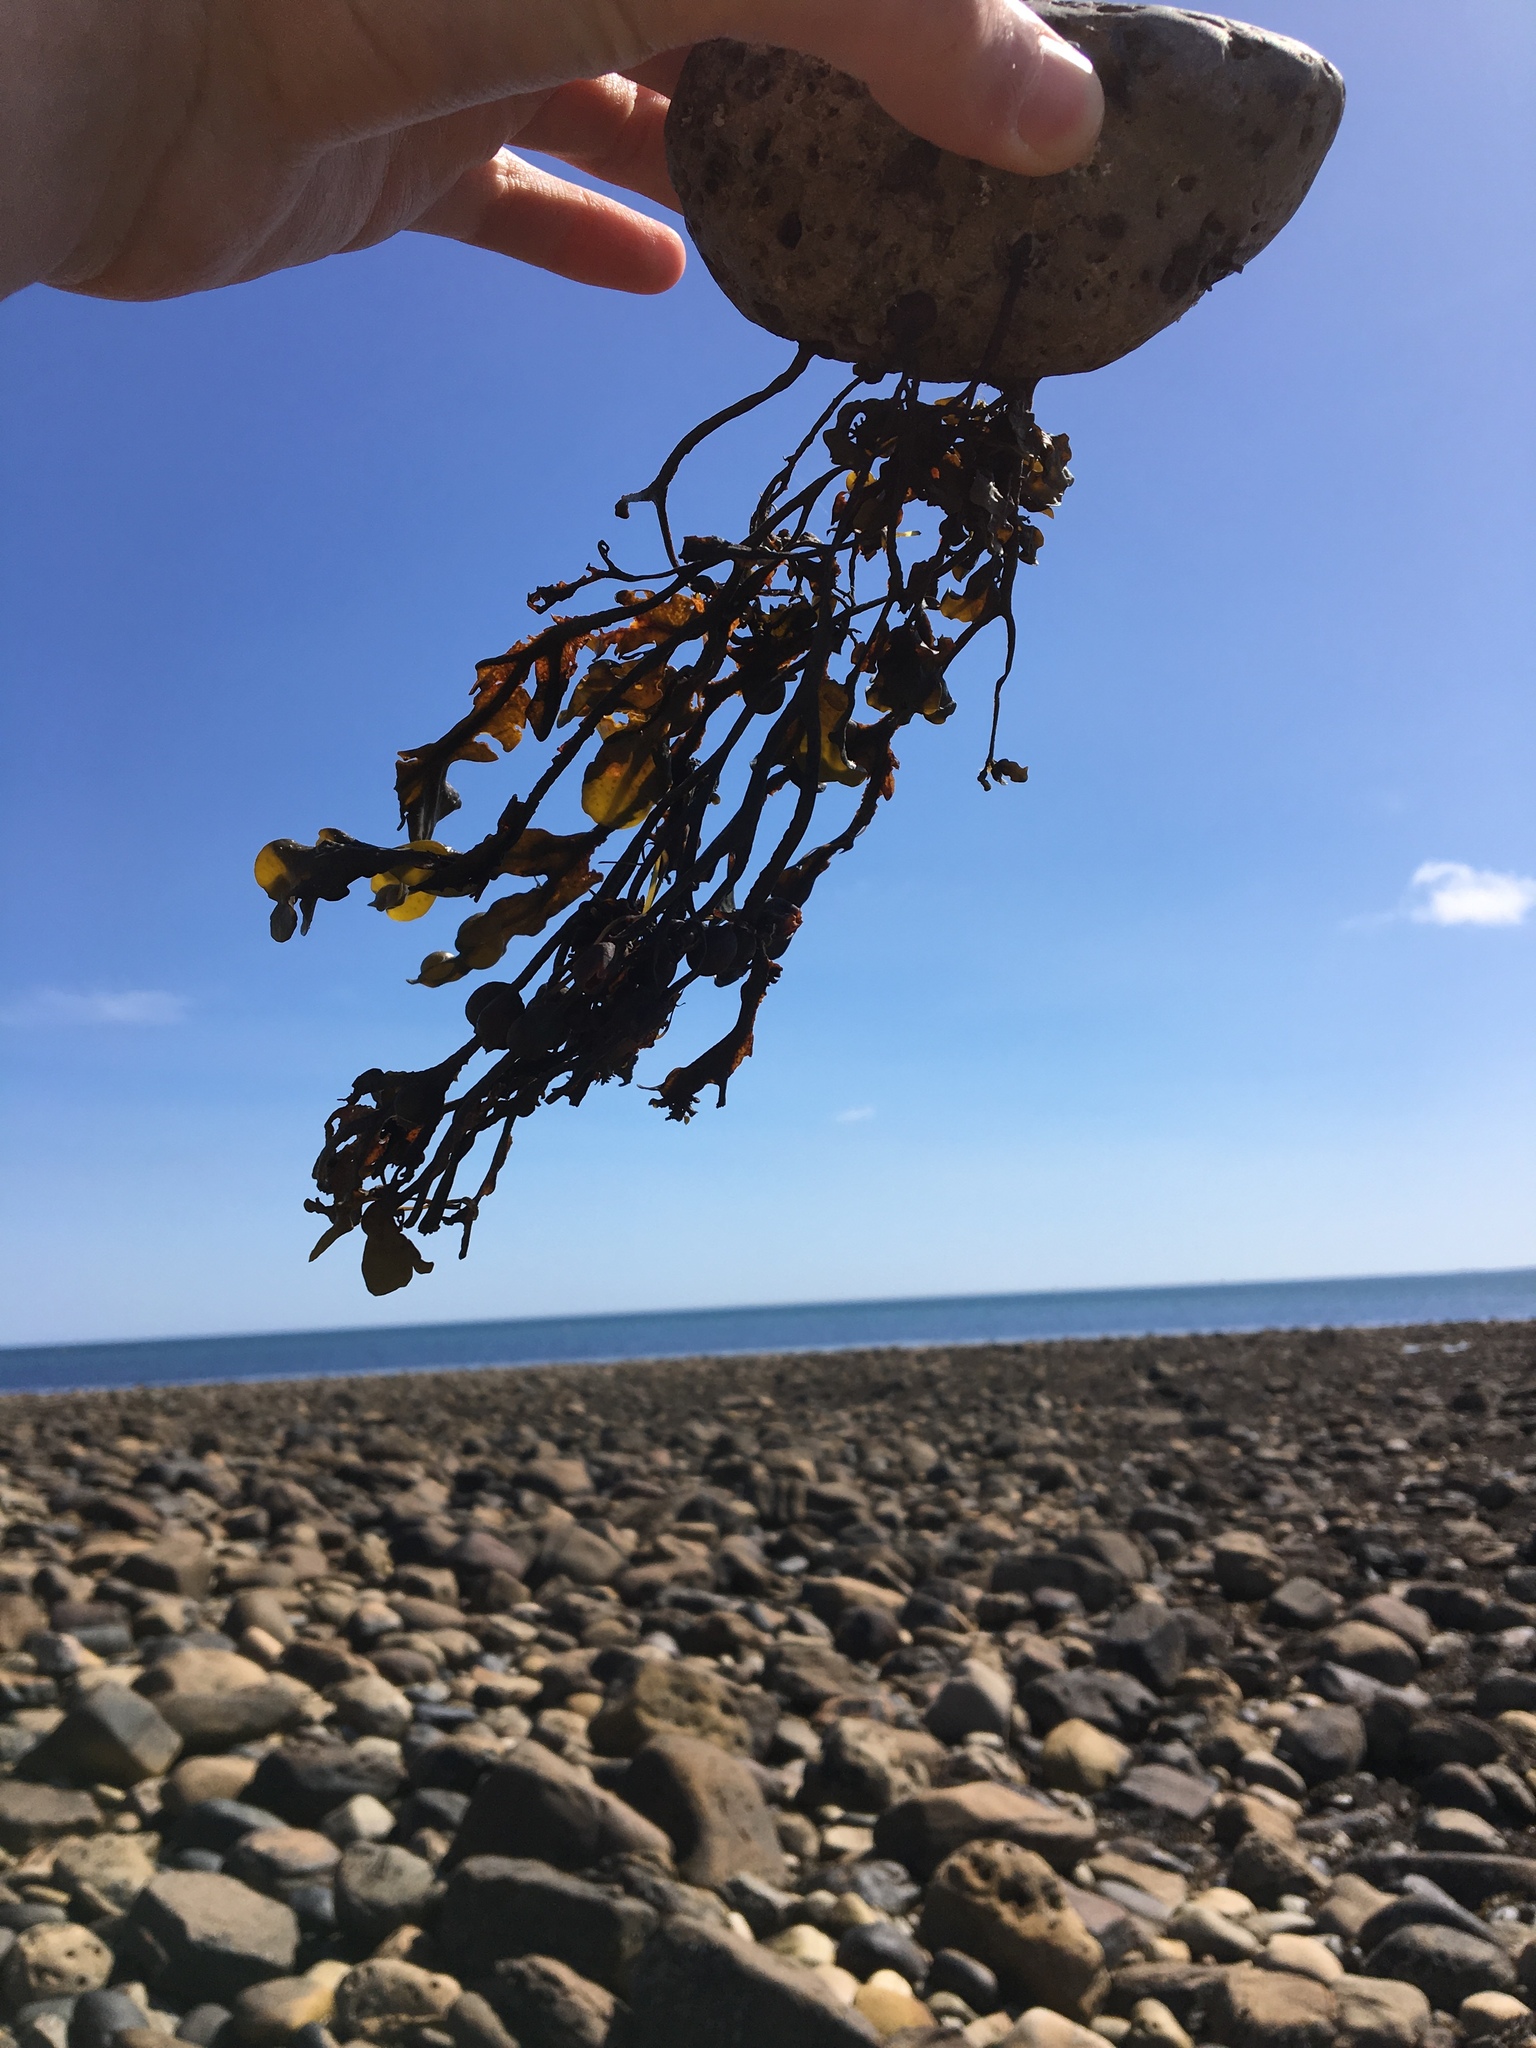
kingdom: Chromista
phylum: Ochrophyta
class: Phaeophyceae
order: Fucales
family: Fucaceae
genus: Fucus
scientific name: Fucus vesiculosus
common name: Bladder wrack
